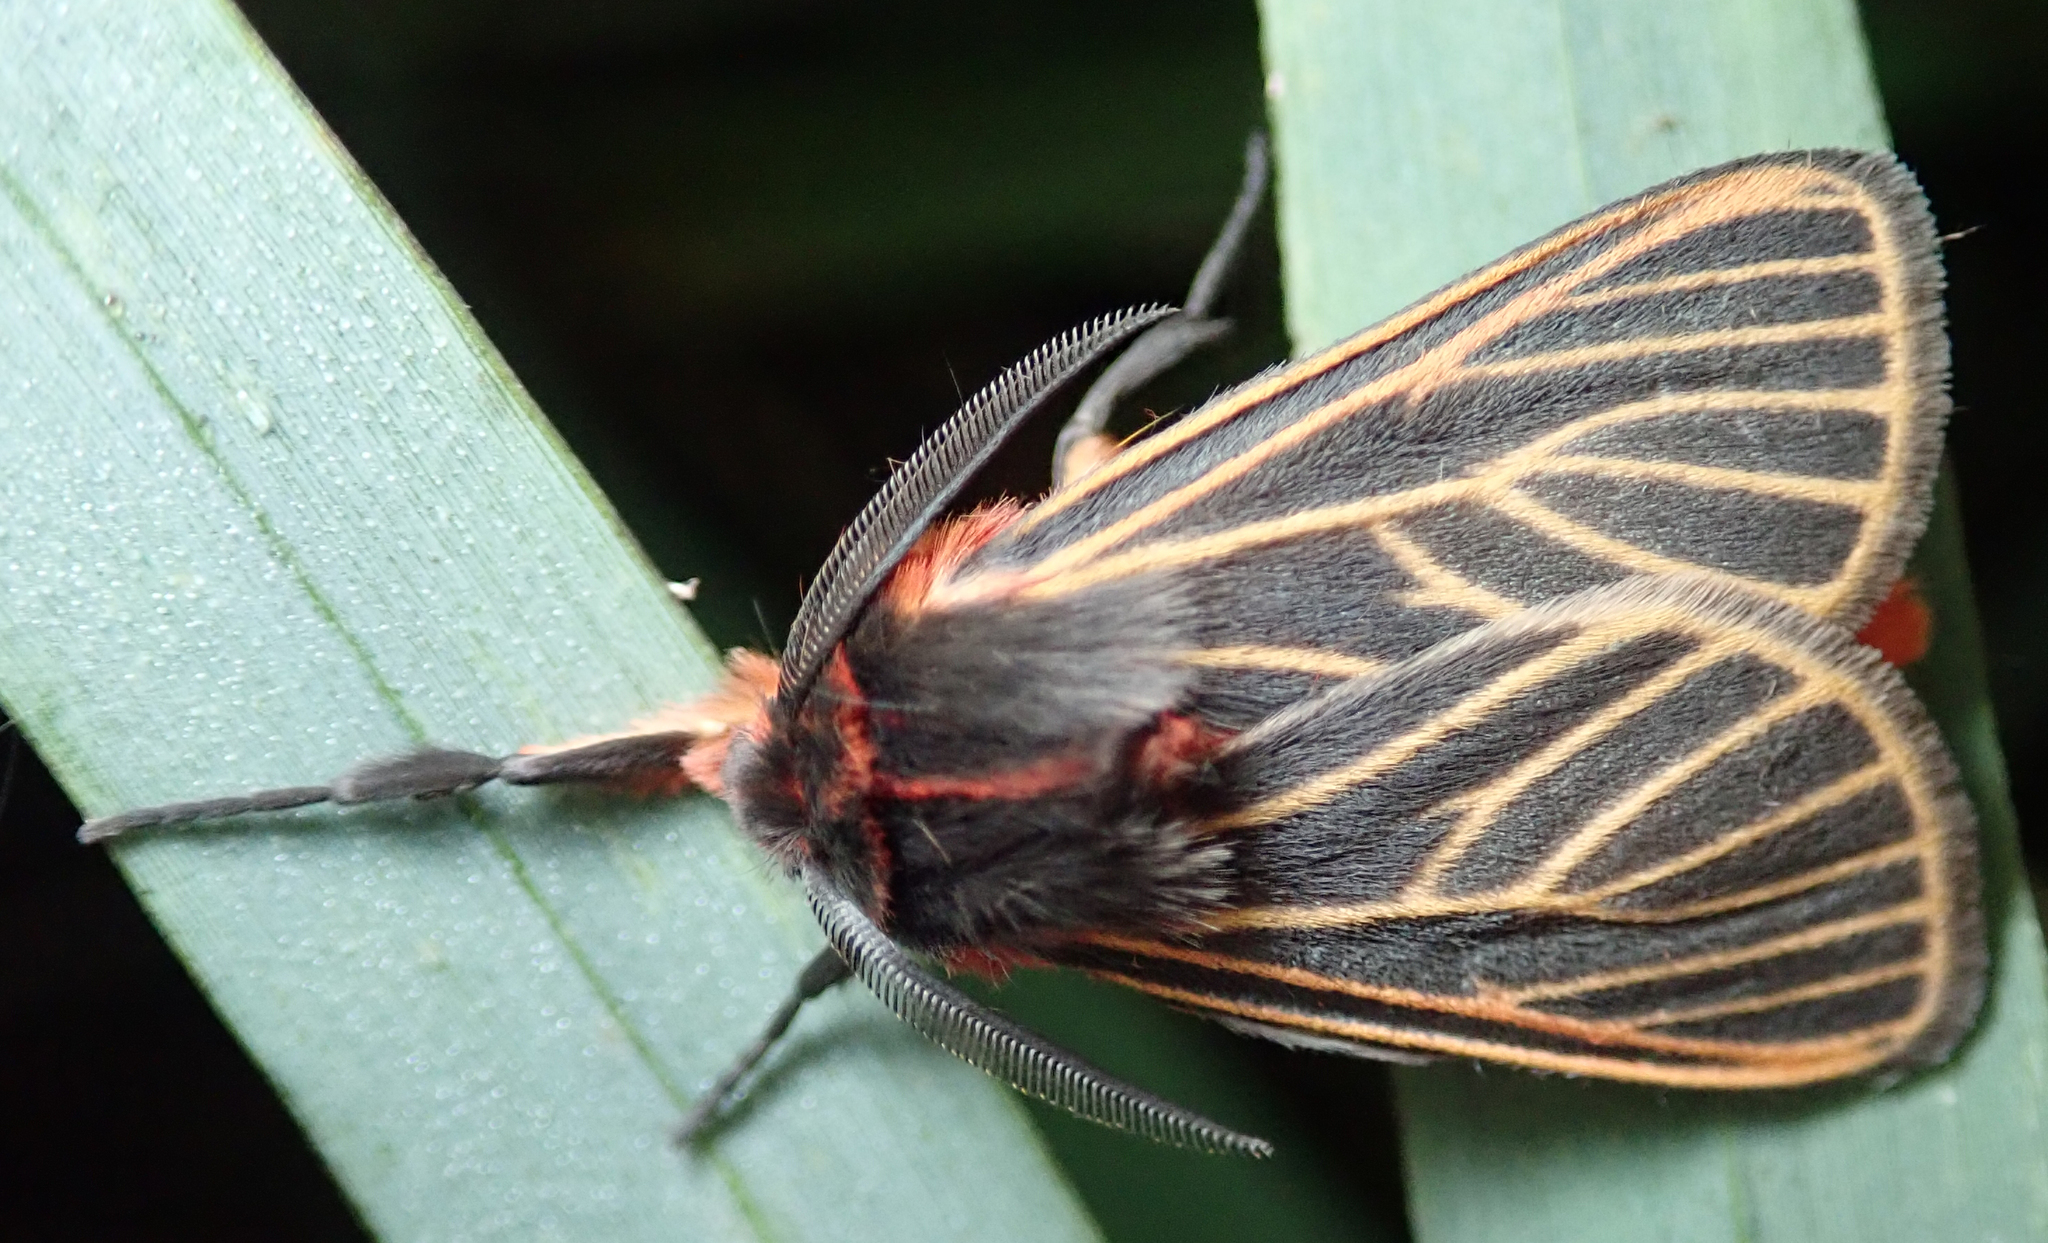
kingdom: Animalia
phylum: Arthropoda
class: Insecta
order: Lepidoptera
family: Erebidae
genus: Automolis
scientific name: Automolis Metarctia flavivena
